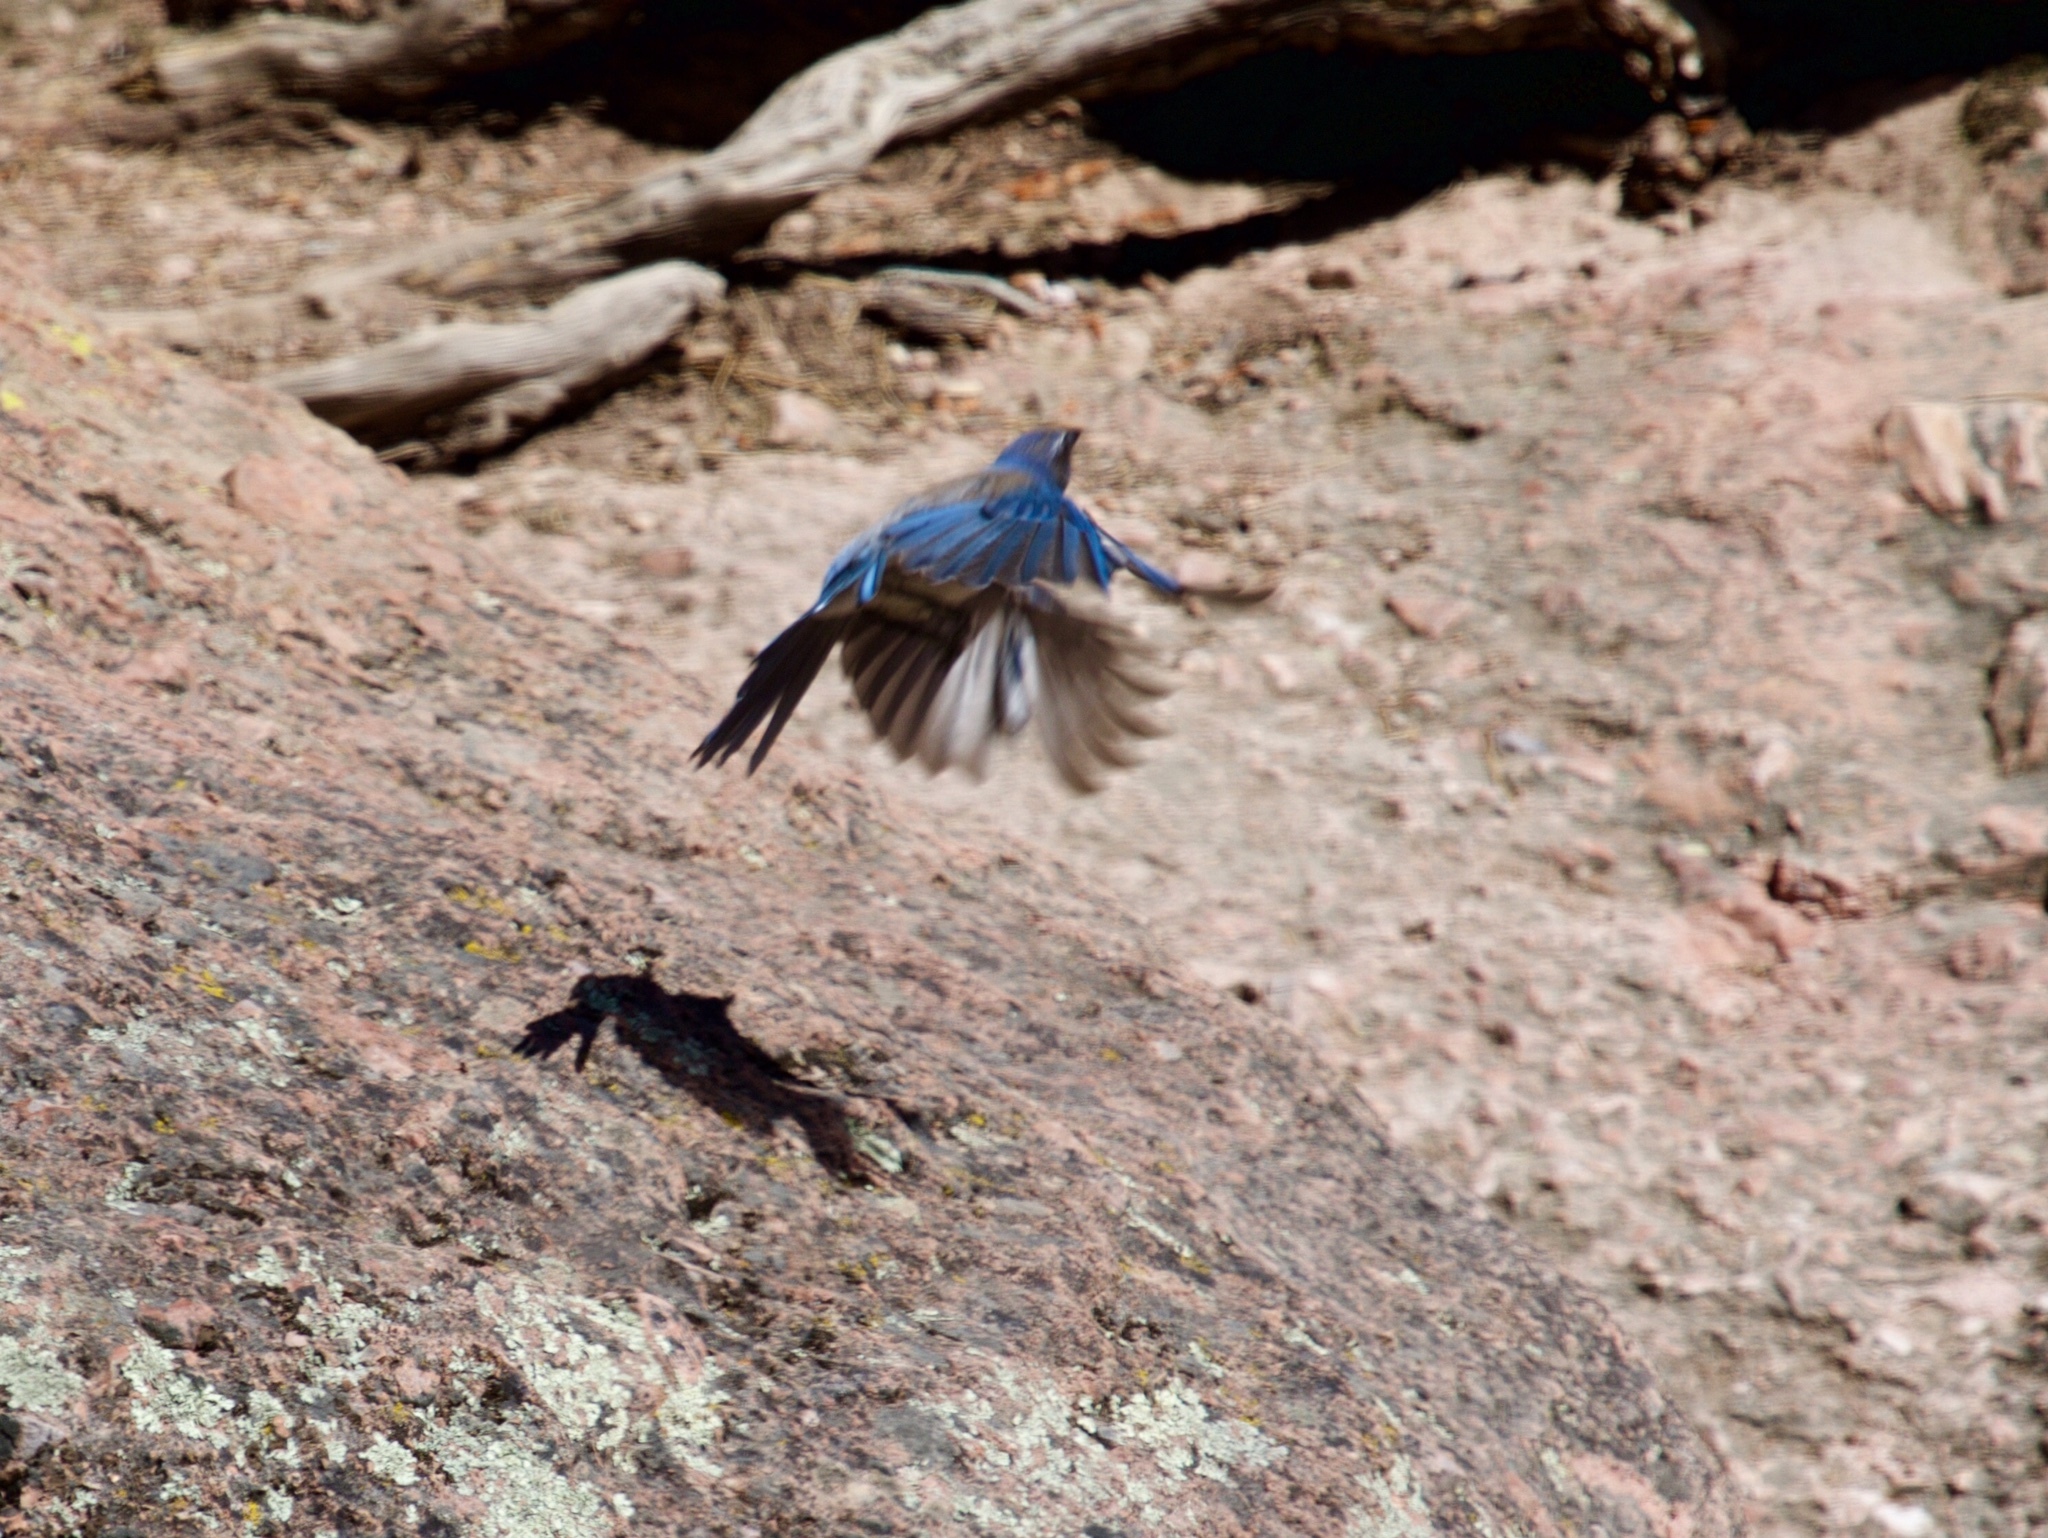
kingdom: Animalia
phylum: Chordata
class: Aves
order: Passeriformes
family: Corvidae
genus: Aphelocoma
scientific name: Aphelocoma californica
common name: California scrub-jay
